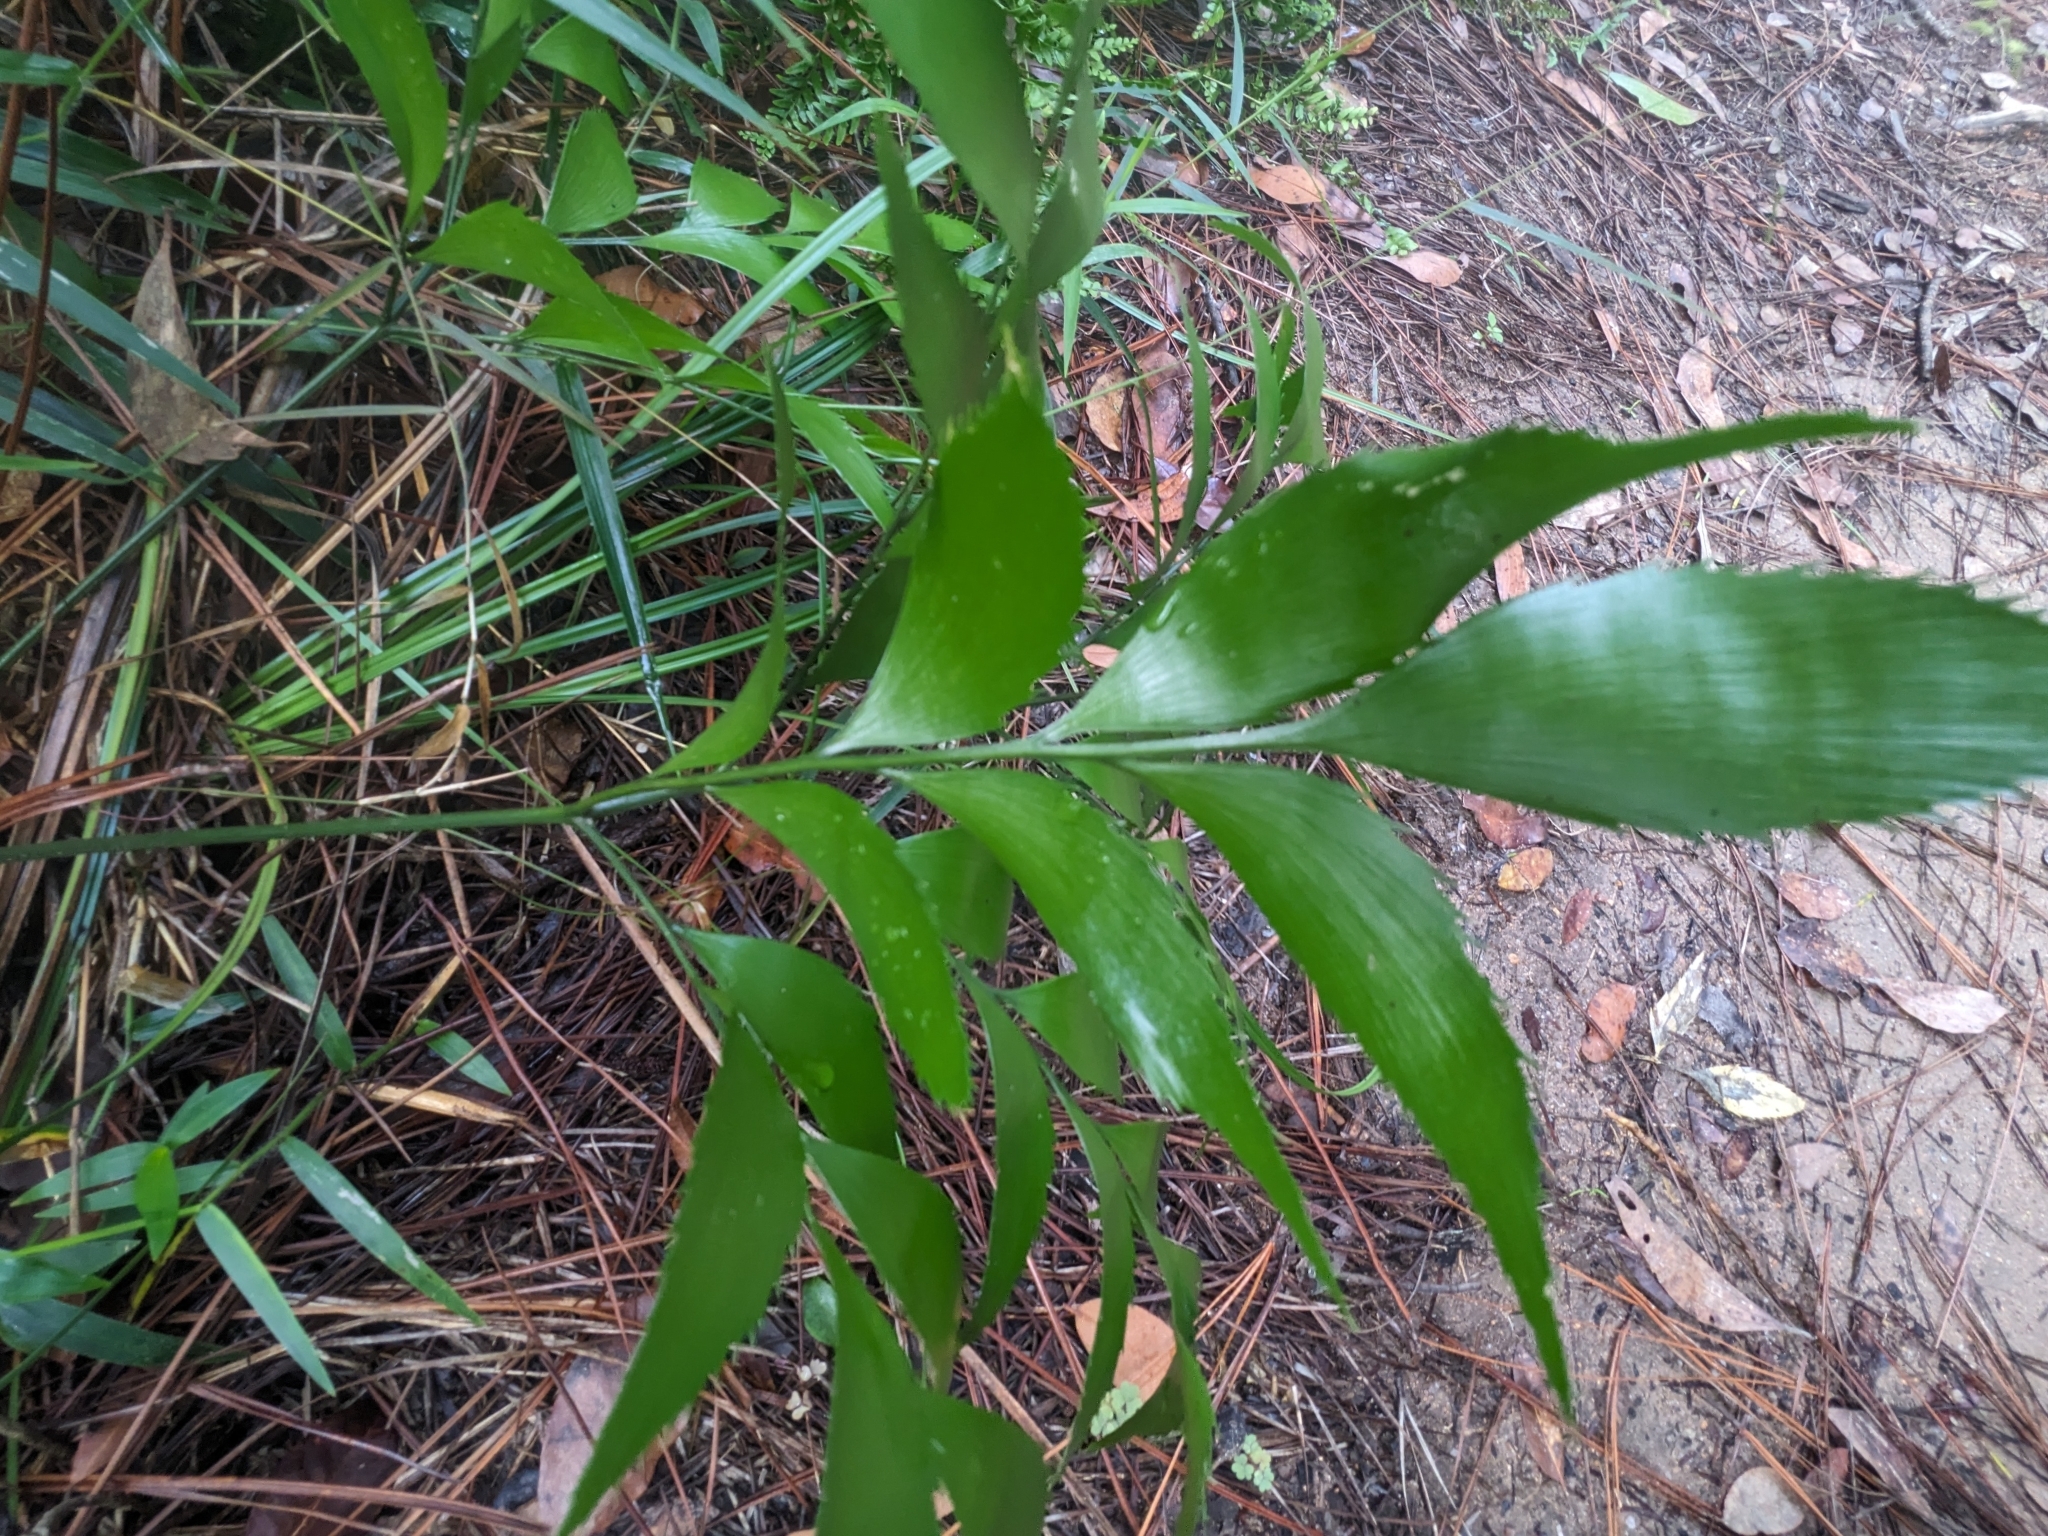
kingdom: Plantae
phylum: Tracheophyta
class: Cycadopsida
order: Cycadales
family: Zamiaceae
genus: Bowenia
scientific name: Bowenia serrulata
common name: Byfield fern
